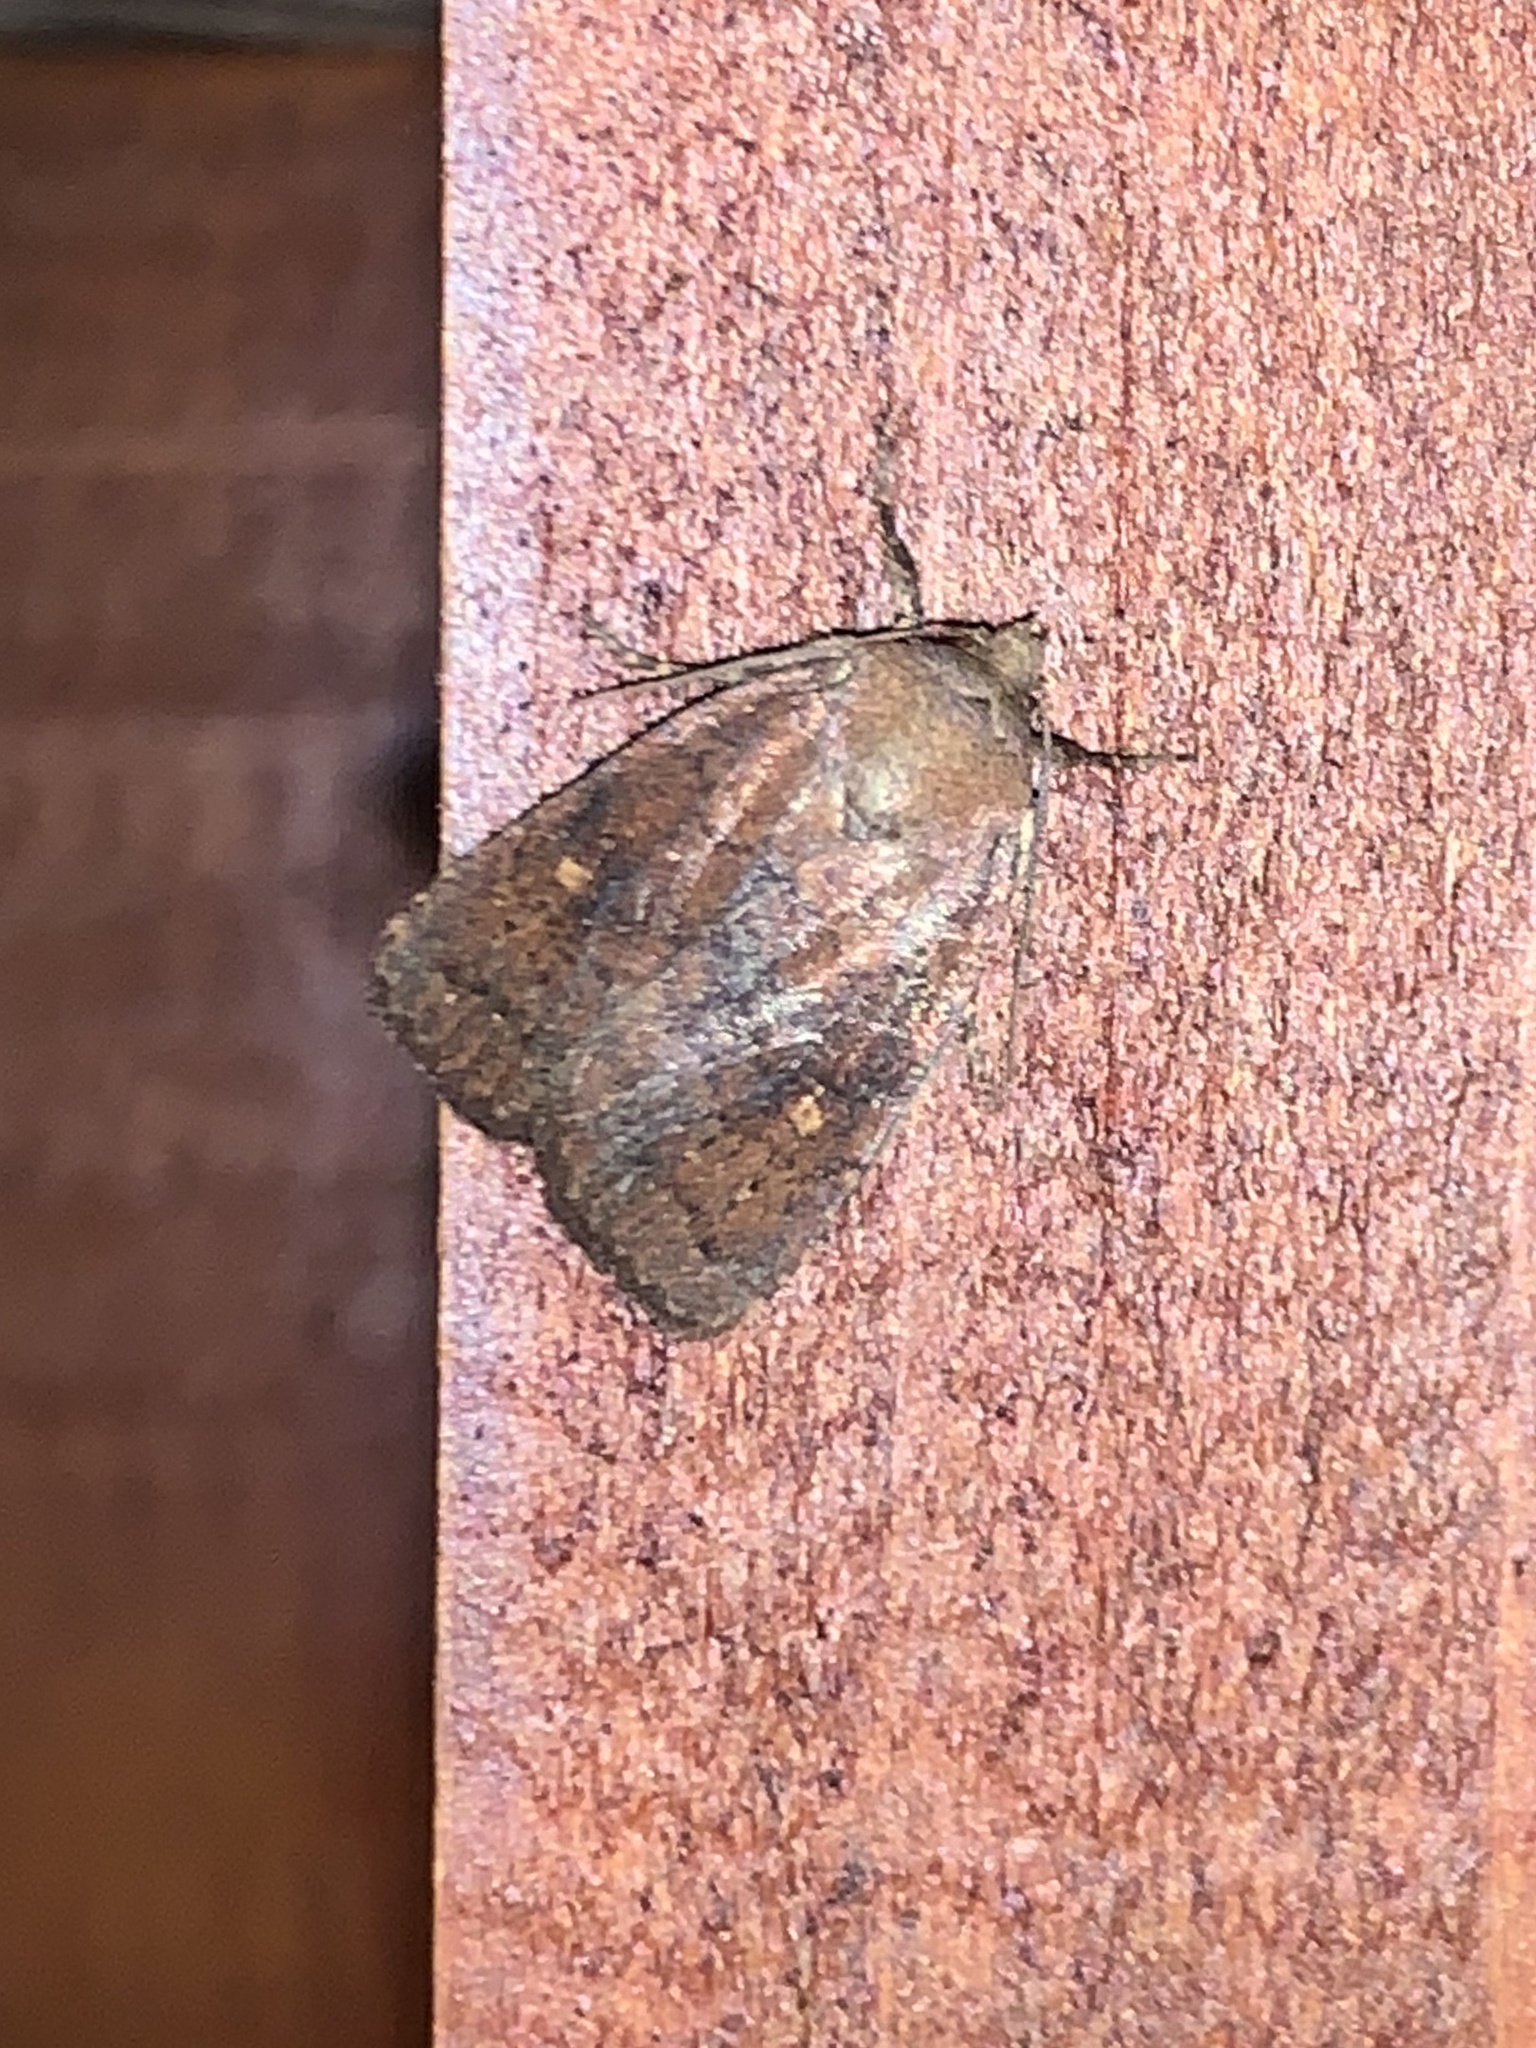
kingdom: Animalia
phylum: Arthropoda
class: Insecta
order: Lepidoptera
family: Noctuidae
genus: Pseudorthodes
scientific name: Pseudorthodes vecors
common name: Small brown quaker
